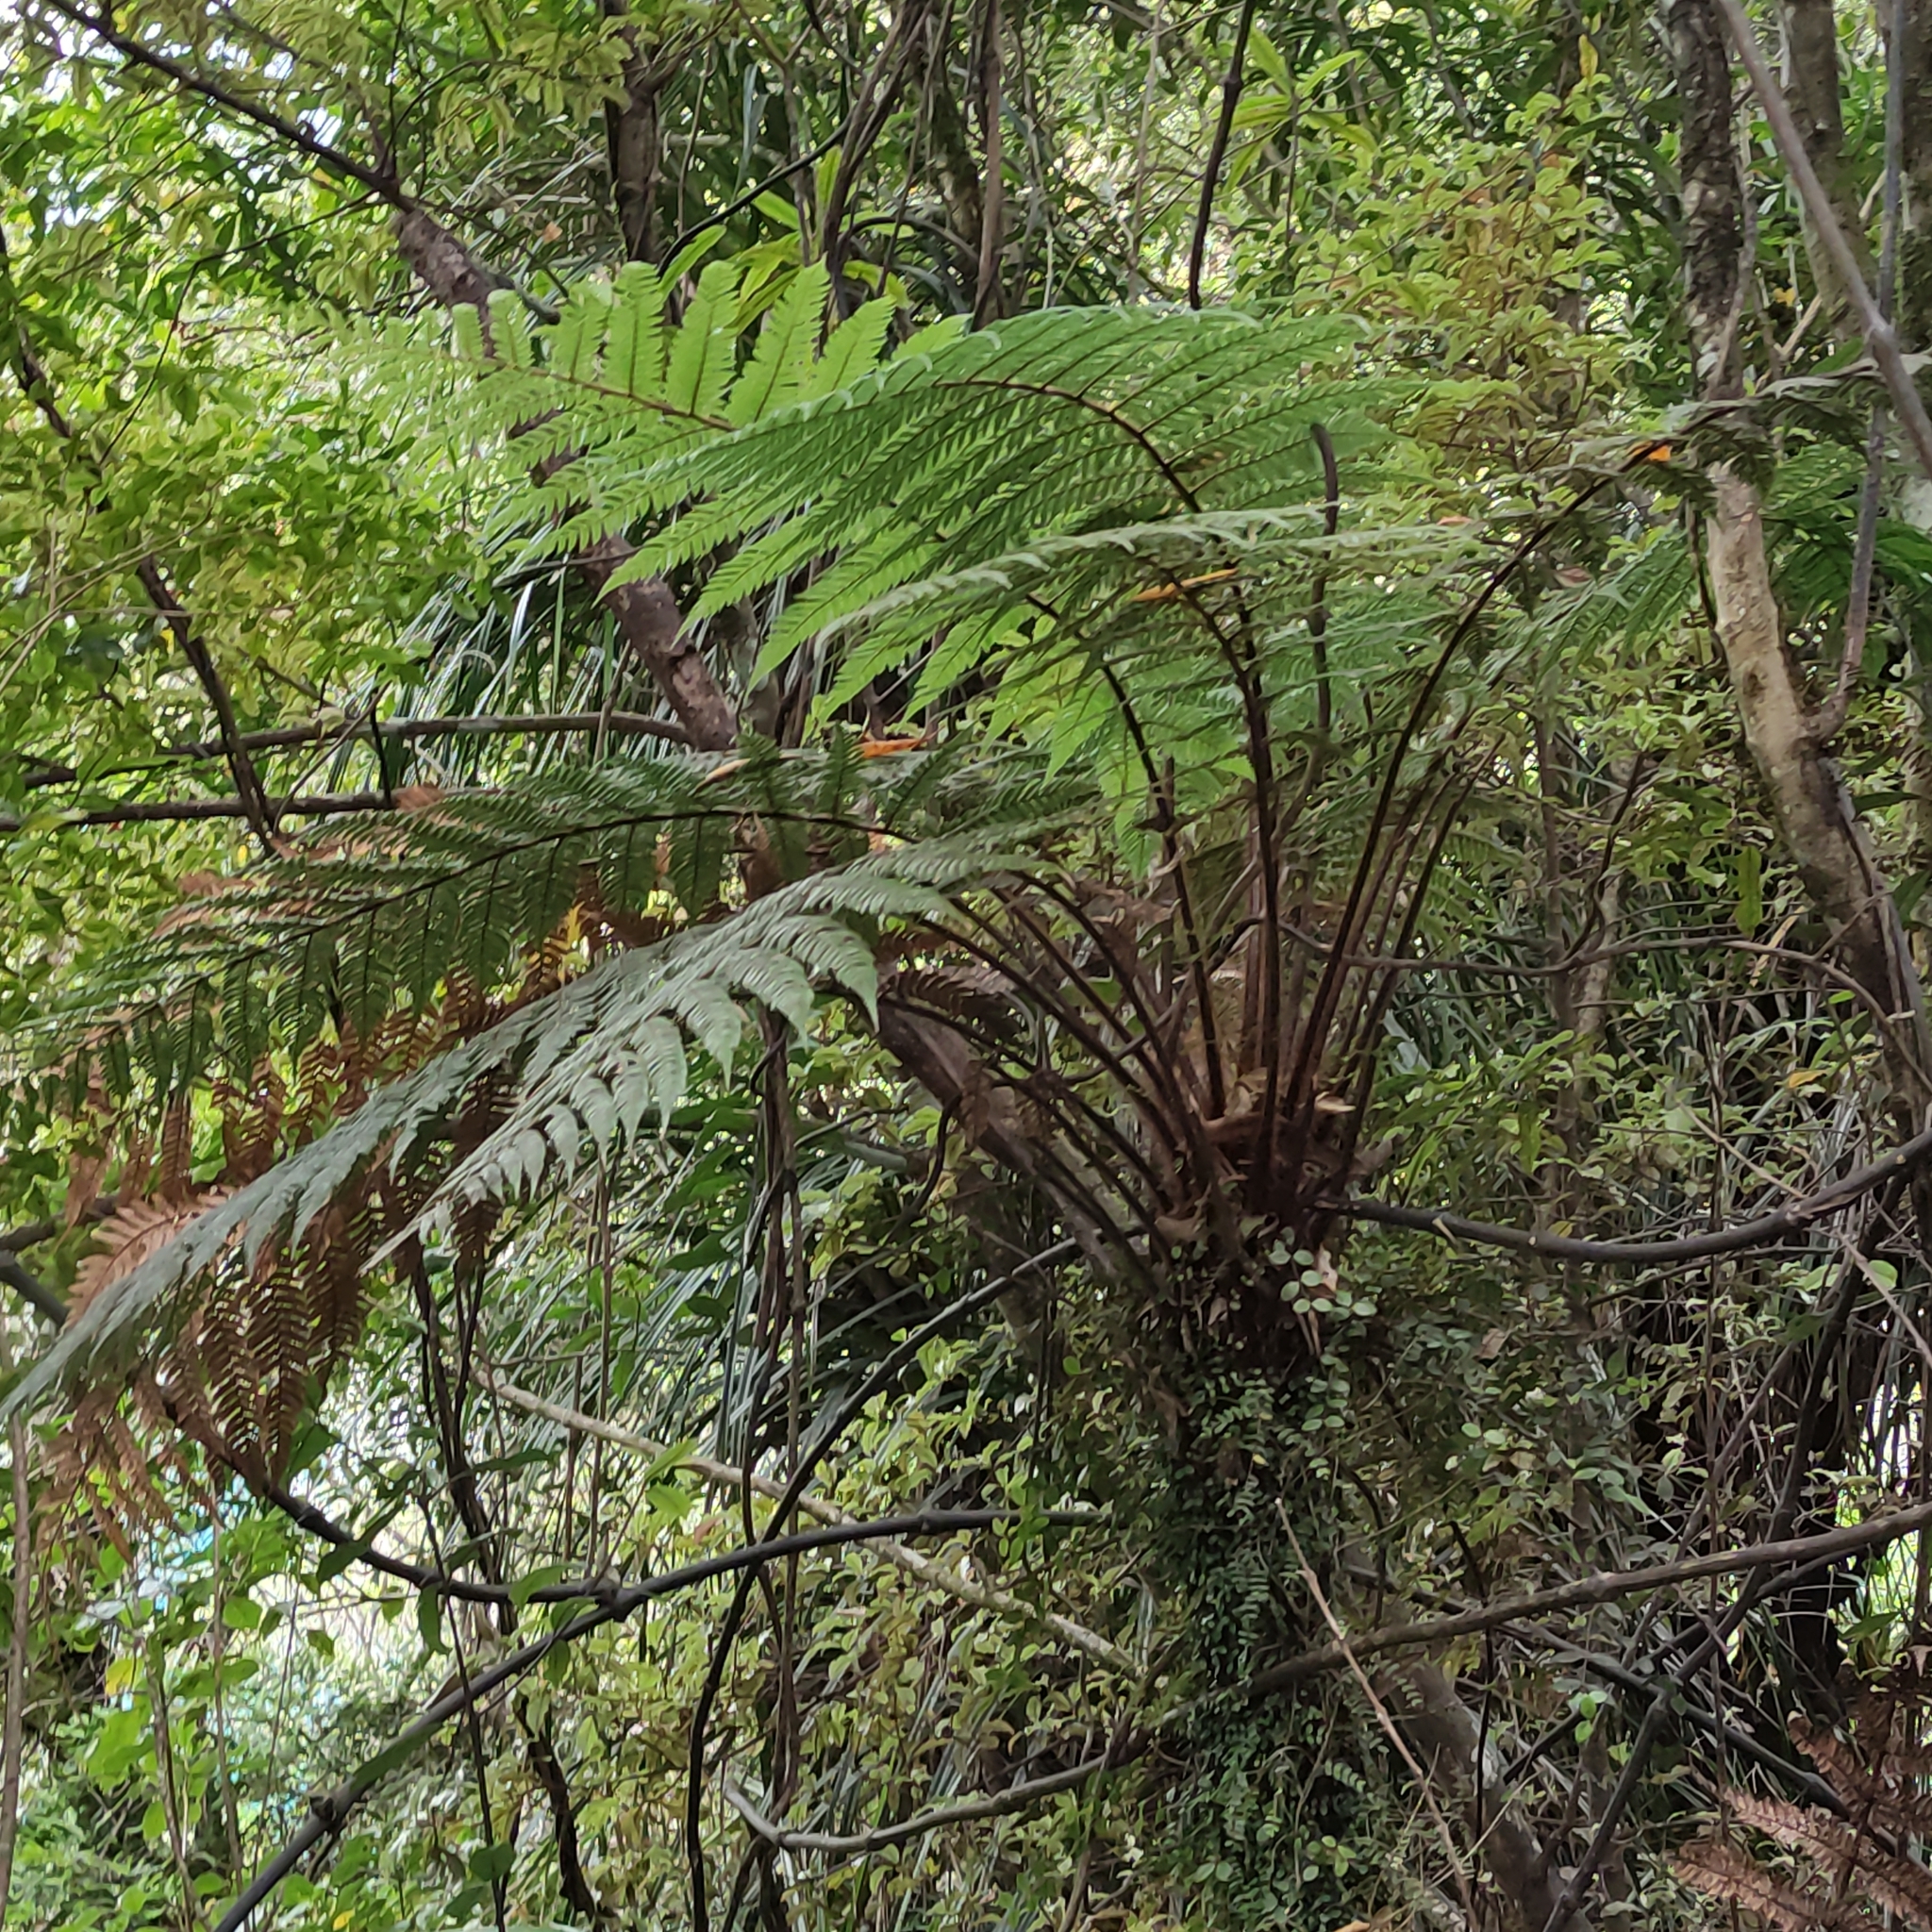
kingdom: Plantae
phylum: Tracheophyta
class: Polypodiopsida
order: Cyatheales
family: Dicksoniaceae
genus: Dicksonia
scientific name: Dicksonia squarrosa
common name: Hard treefern
